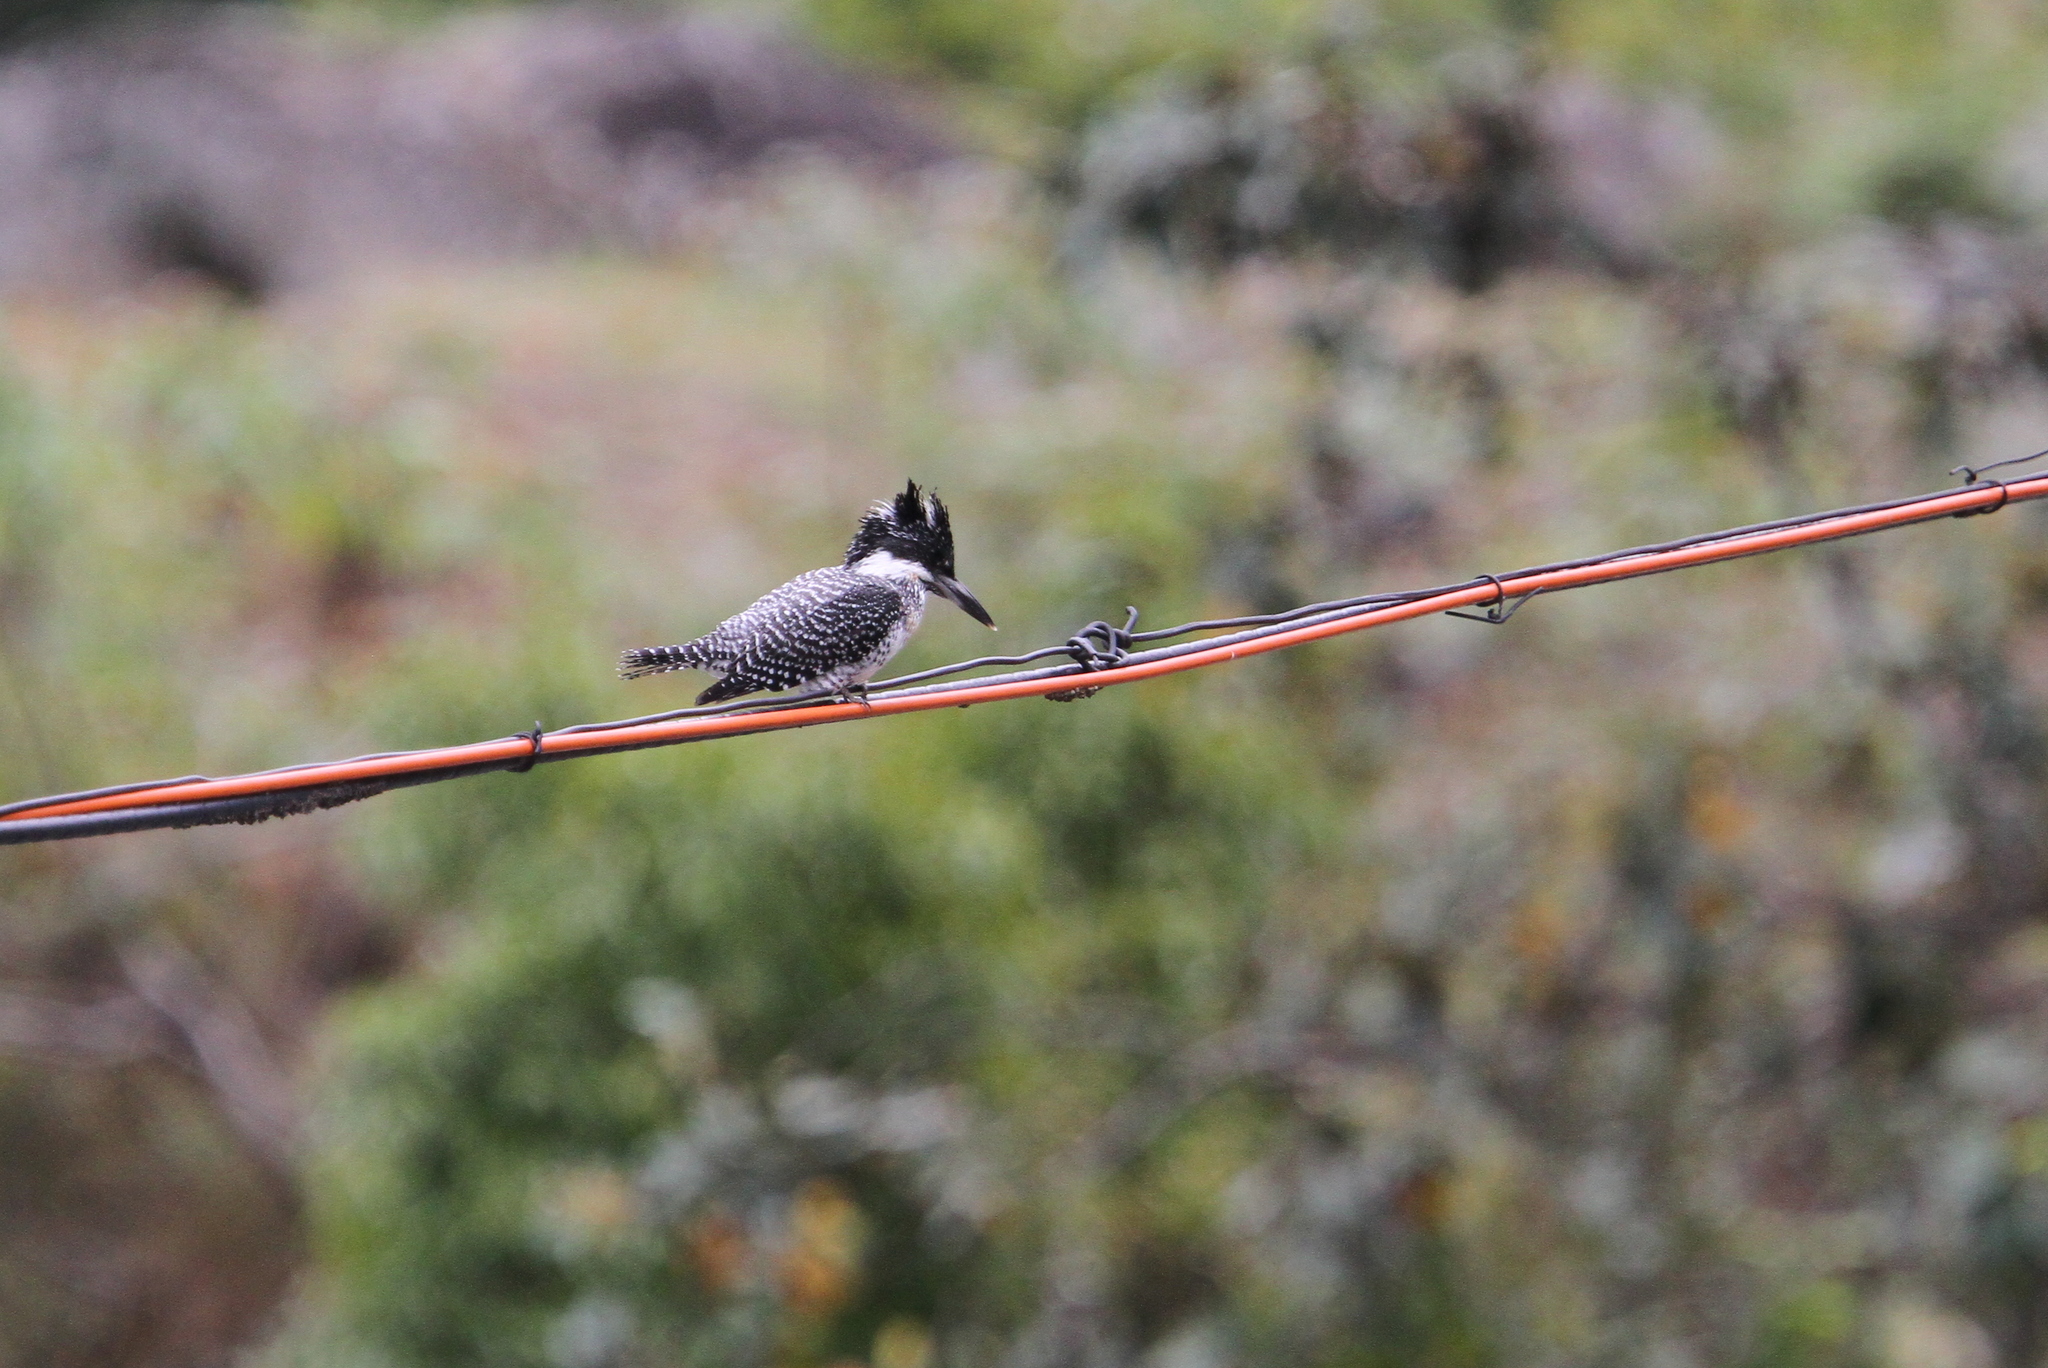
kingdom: Animalia
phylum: Chordata
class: Aves
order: Coraciiformes
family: Alcedinidae
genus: Megaceryle
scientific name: Megaceryle lugubris
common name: Crested kingfisher
